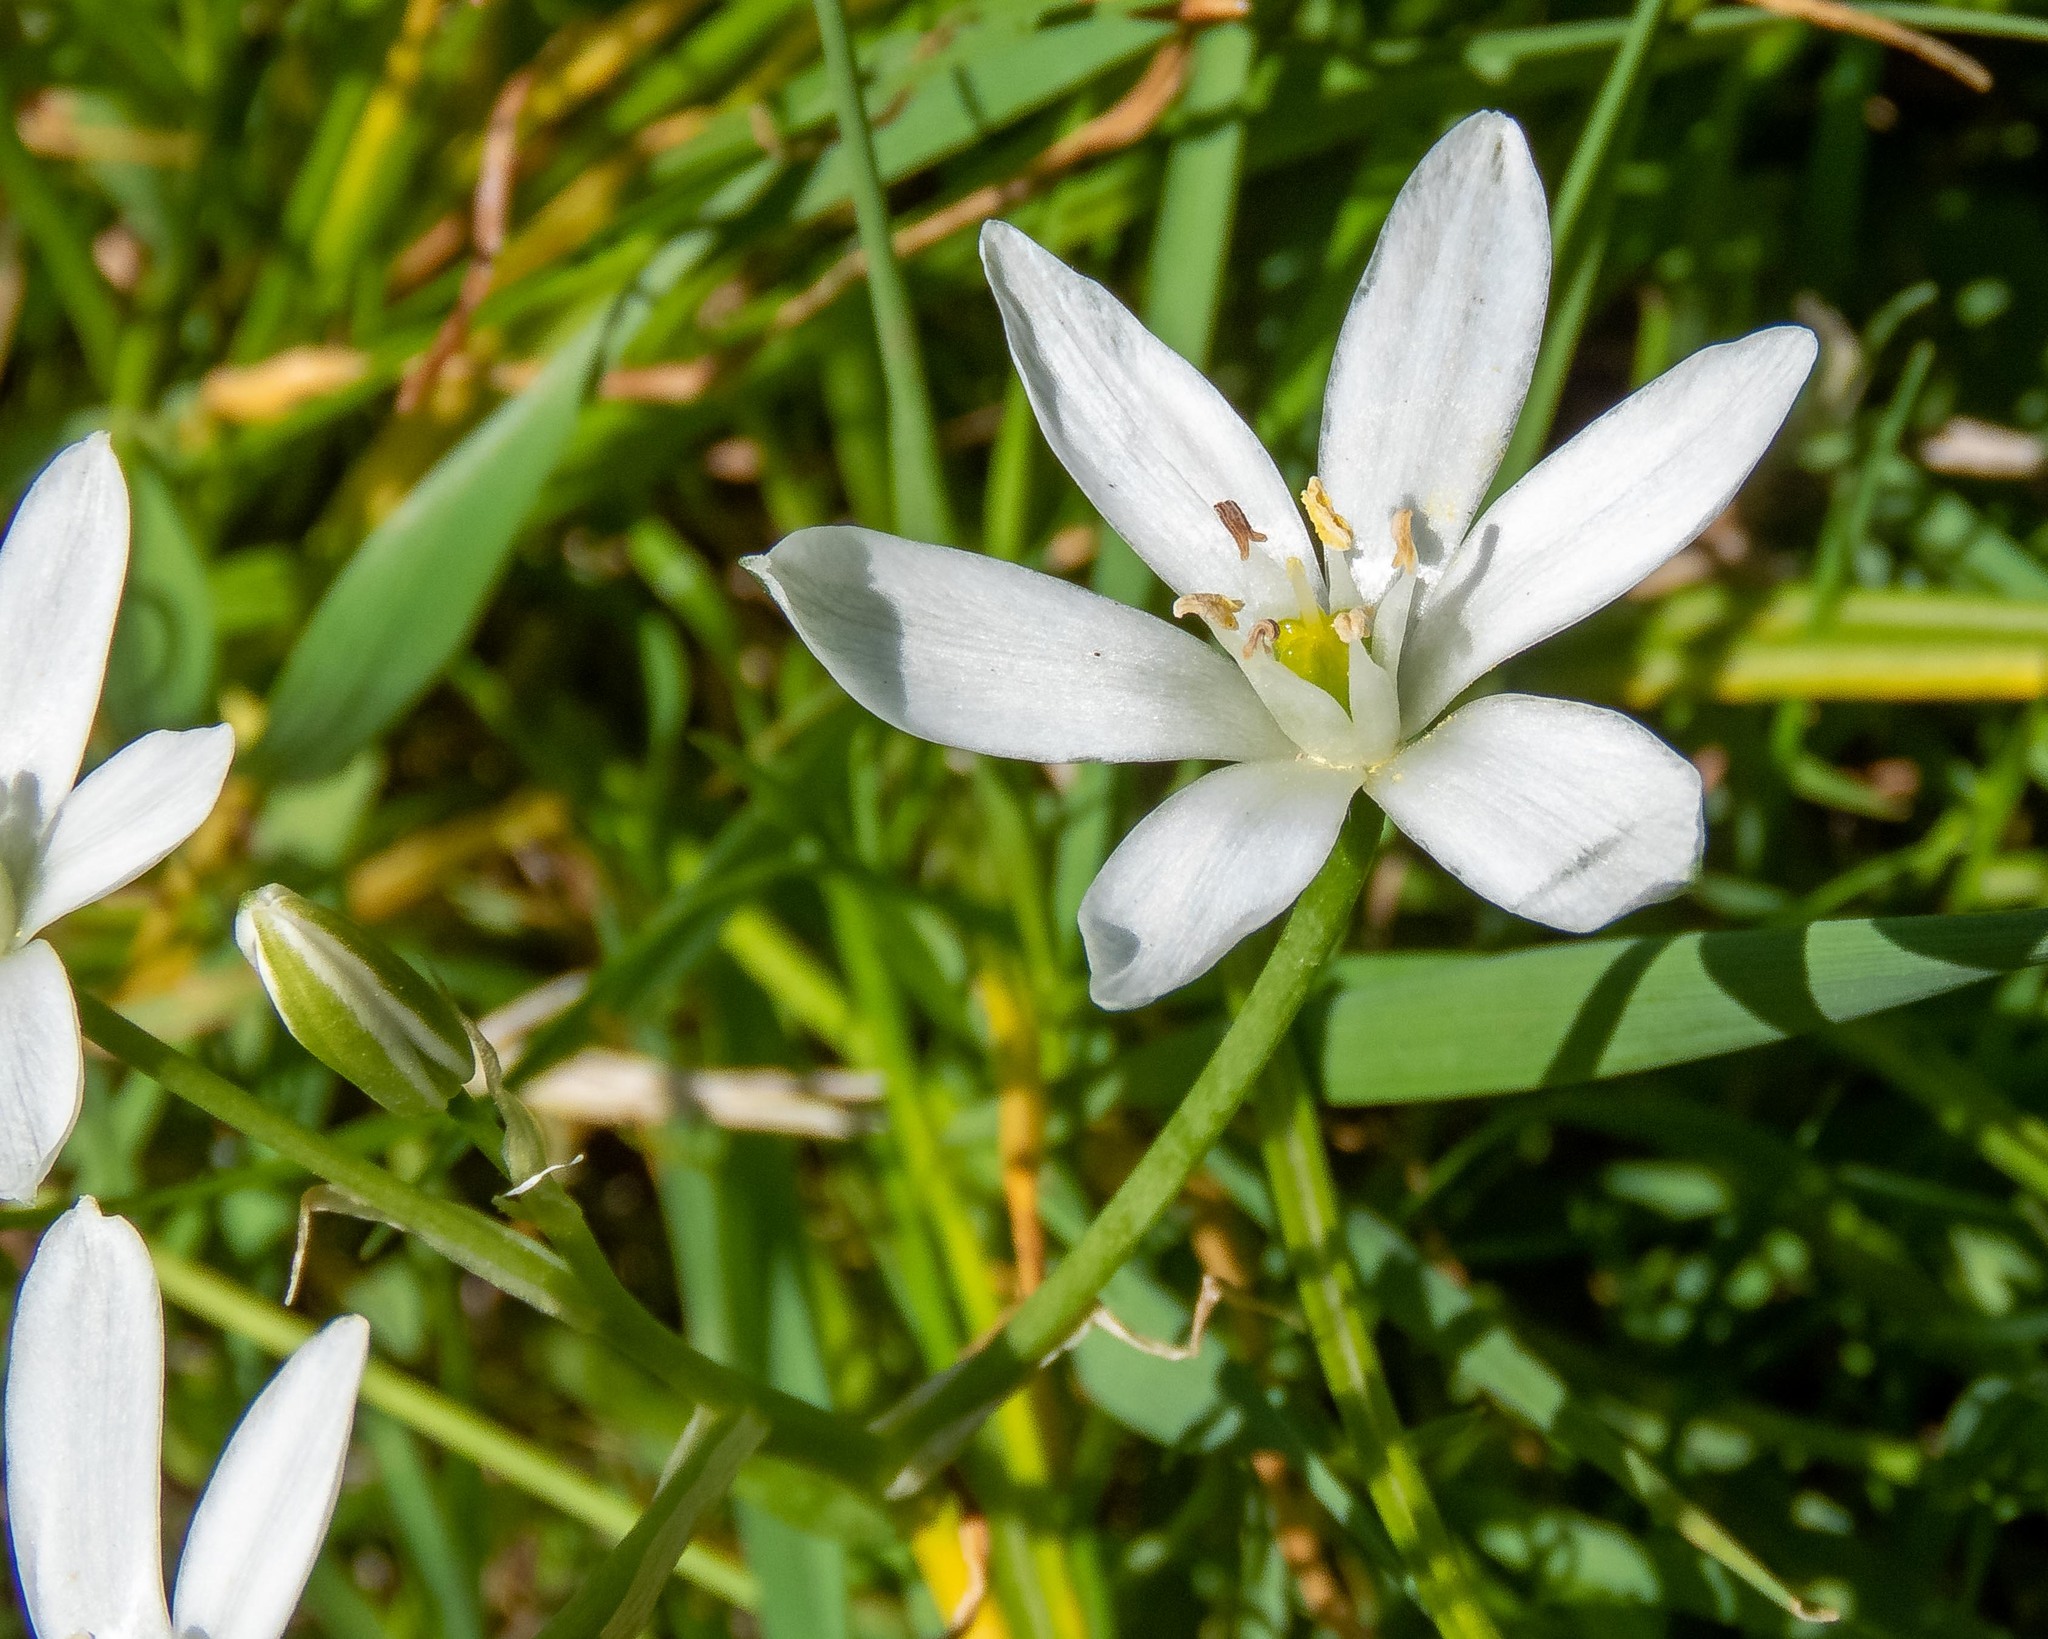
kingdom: Plantae
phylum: Tracheophyta
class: Liliopsida
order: Asparagales
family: Asparagaceae
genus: Ornithogalum
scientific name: Ornithogalum umbellatum
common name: Garden star-of-bethlehem
